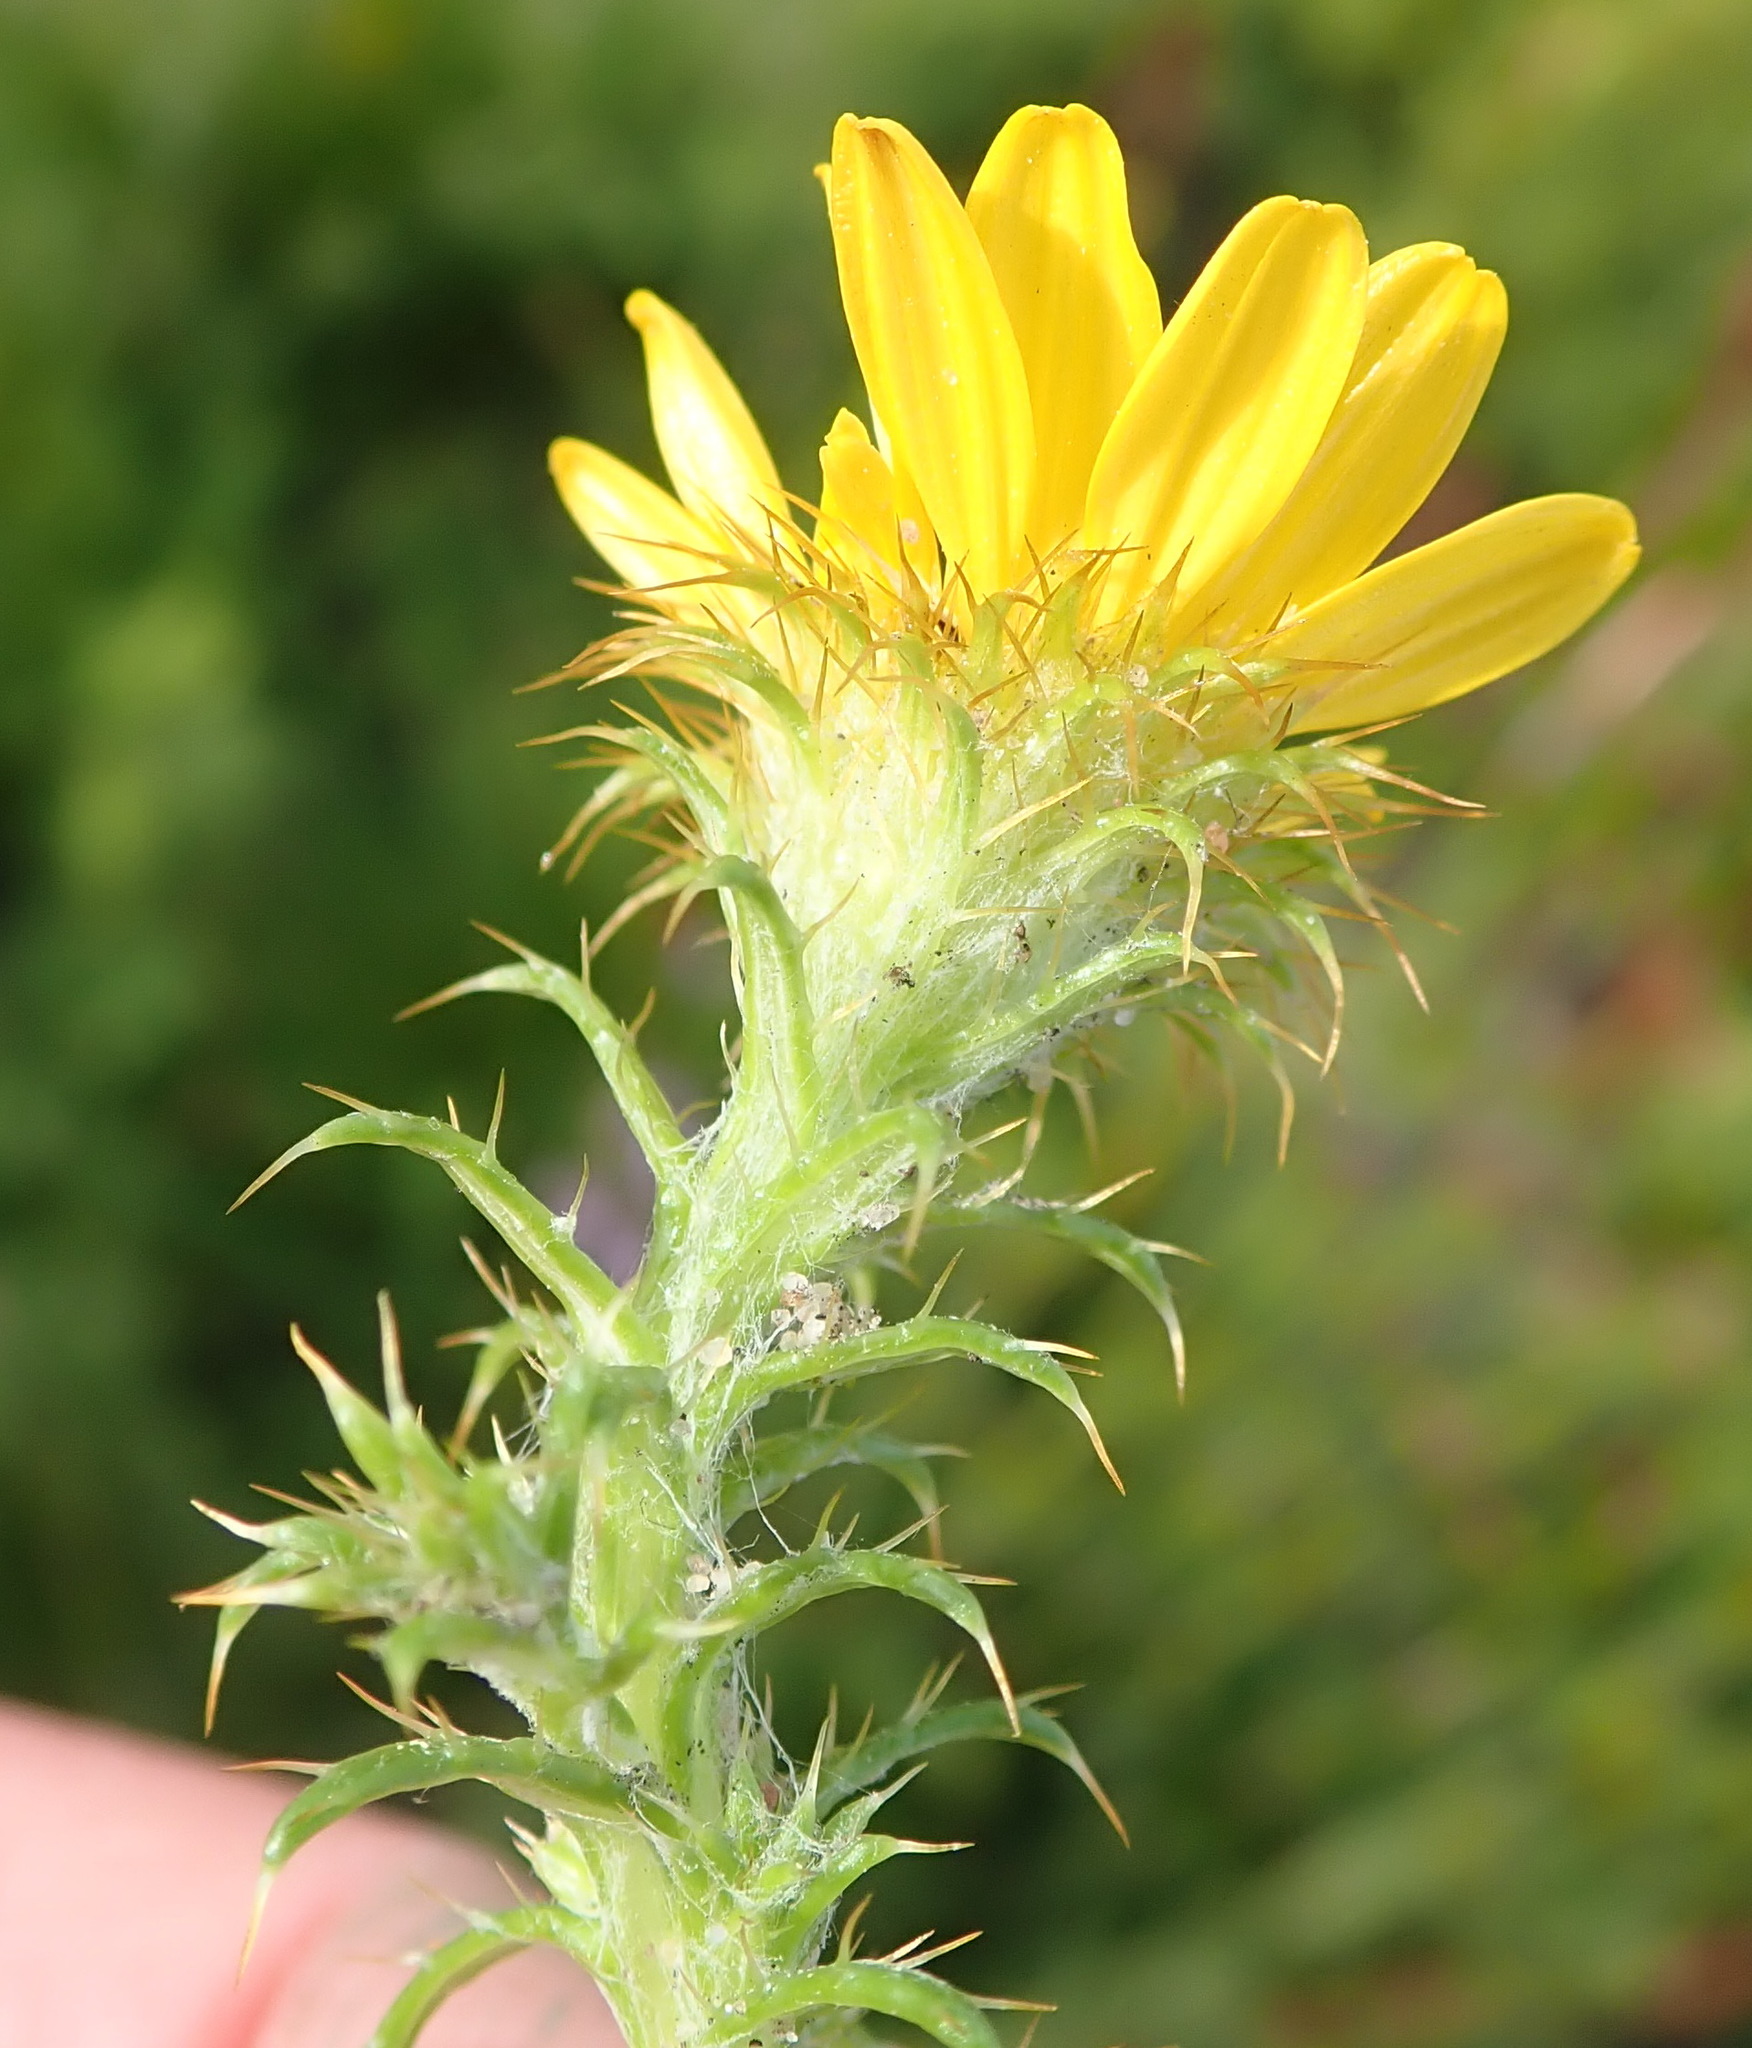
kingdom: Plantae
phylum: Tracheophyta
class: Magnoliopsida
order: Asterales
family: Asteraceae
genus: Cullumia
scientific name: Cullumia decurrens
